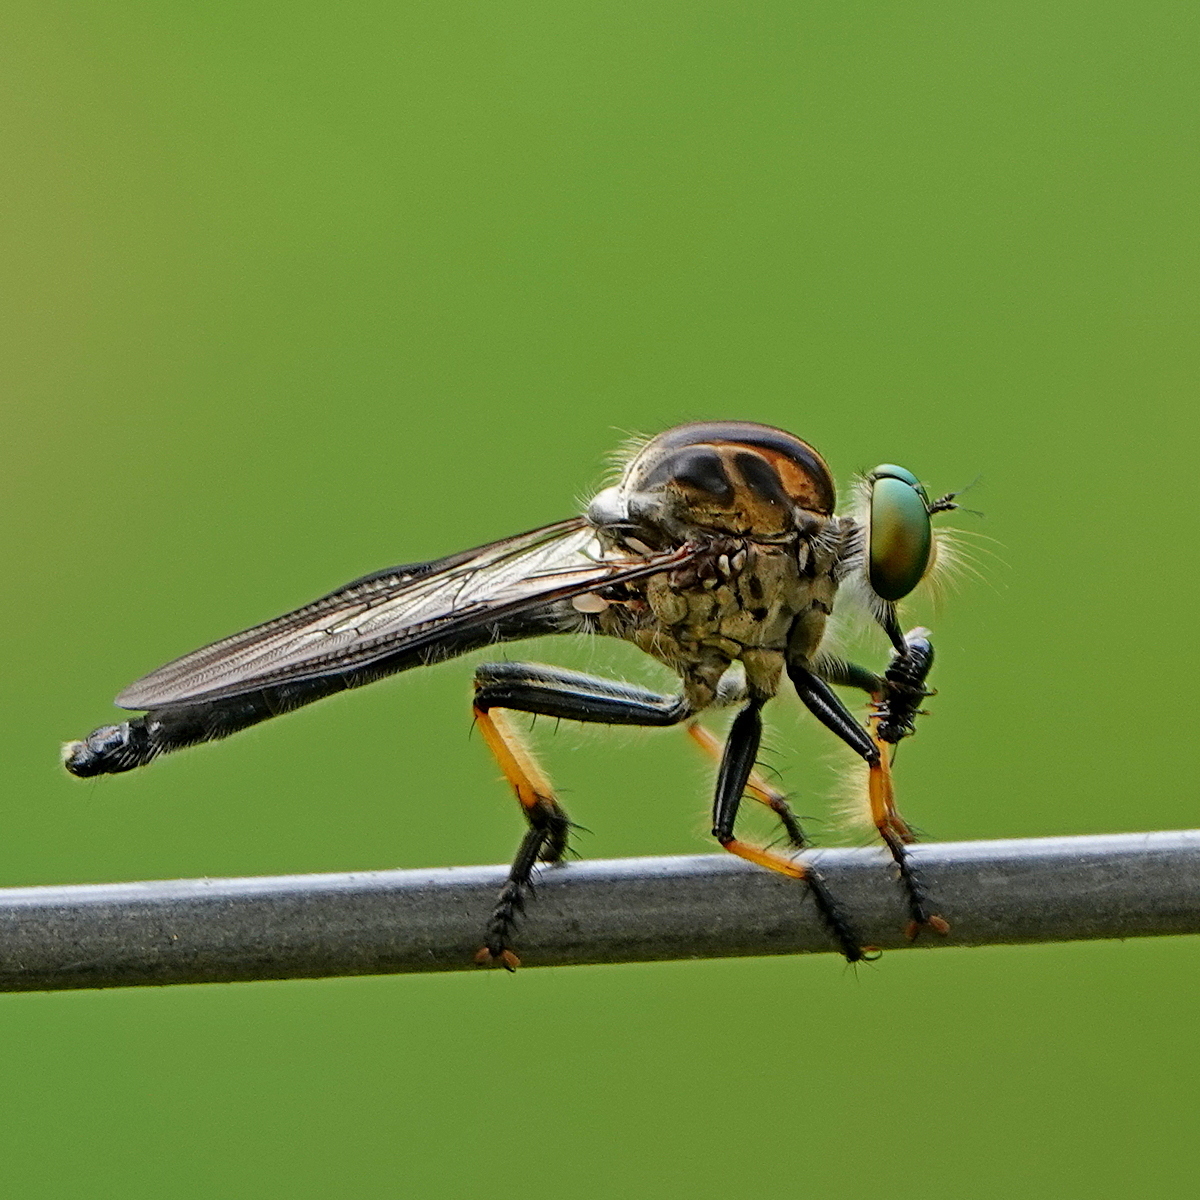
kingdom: Animalia
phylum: Arthropoda
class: Insecta
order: Diptera
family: Asilidae
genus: Ommatius
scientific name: Ommatius coeraebus
